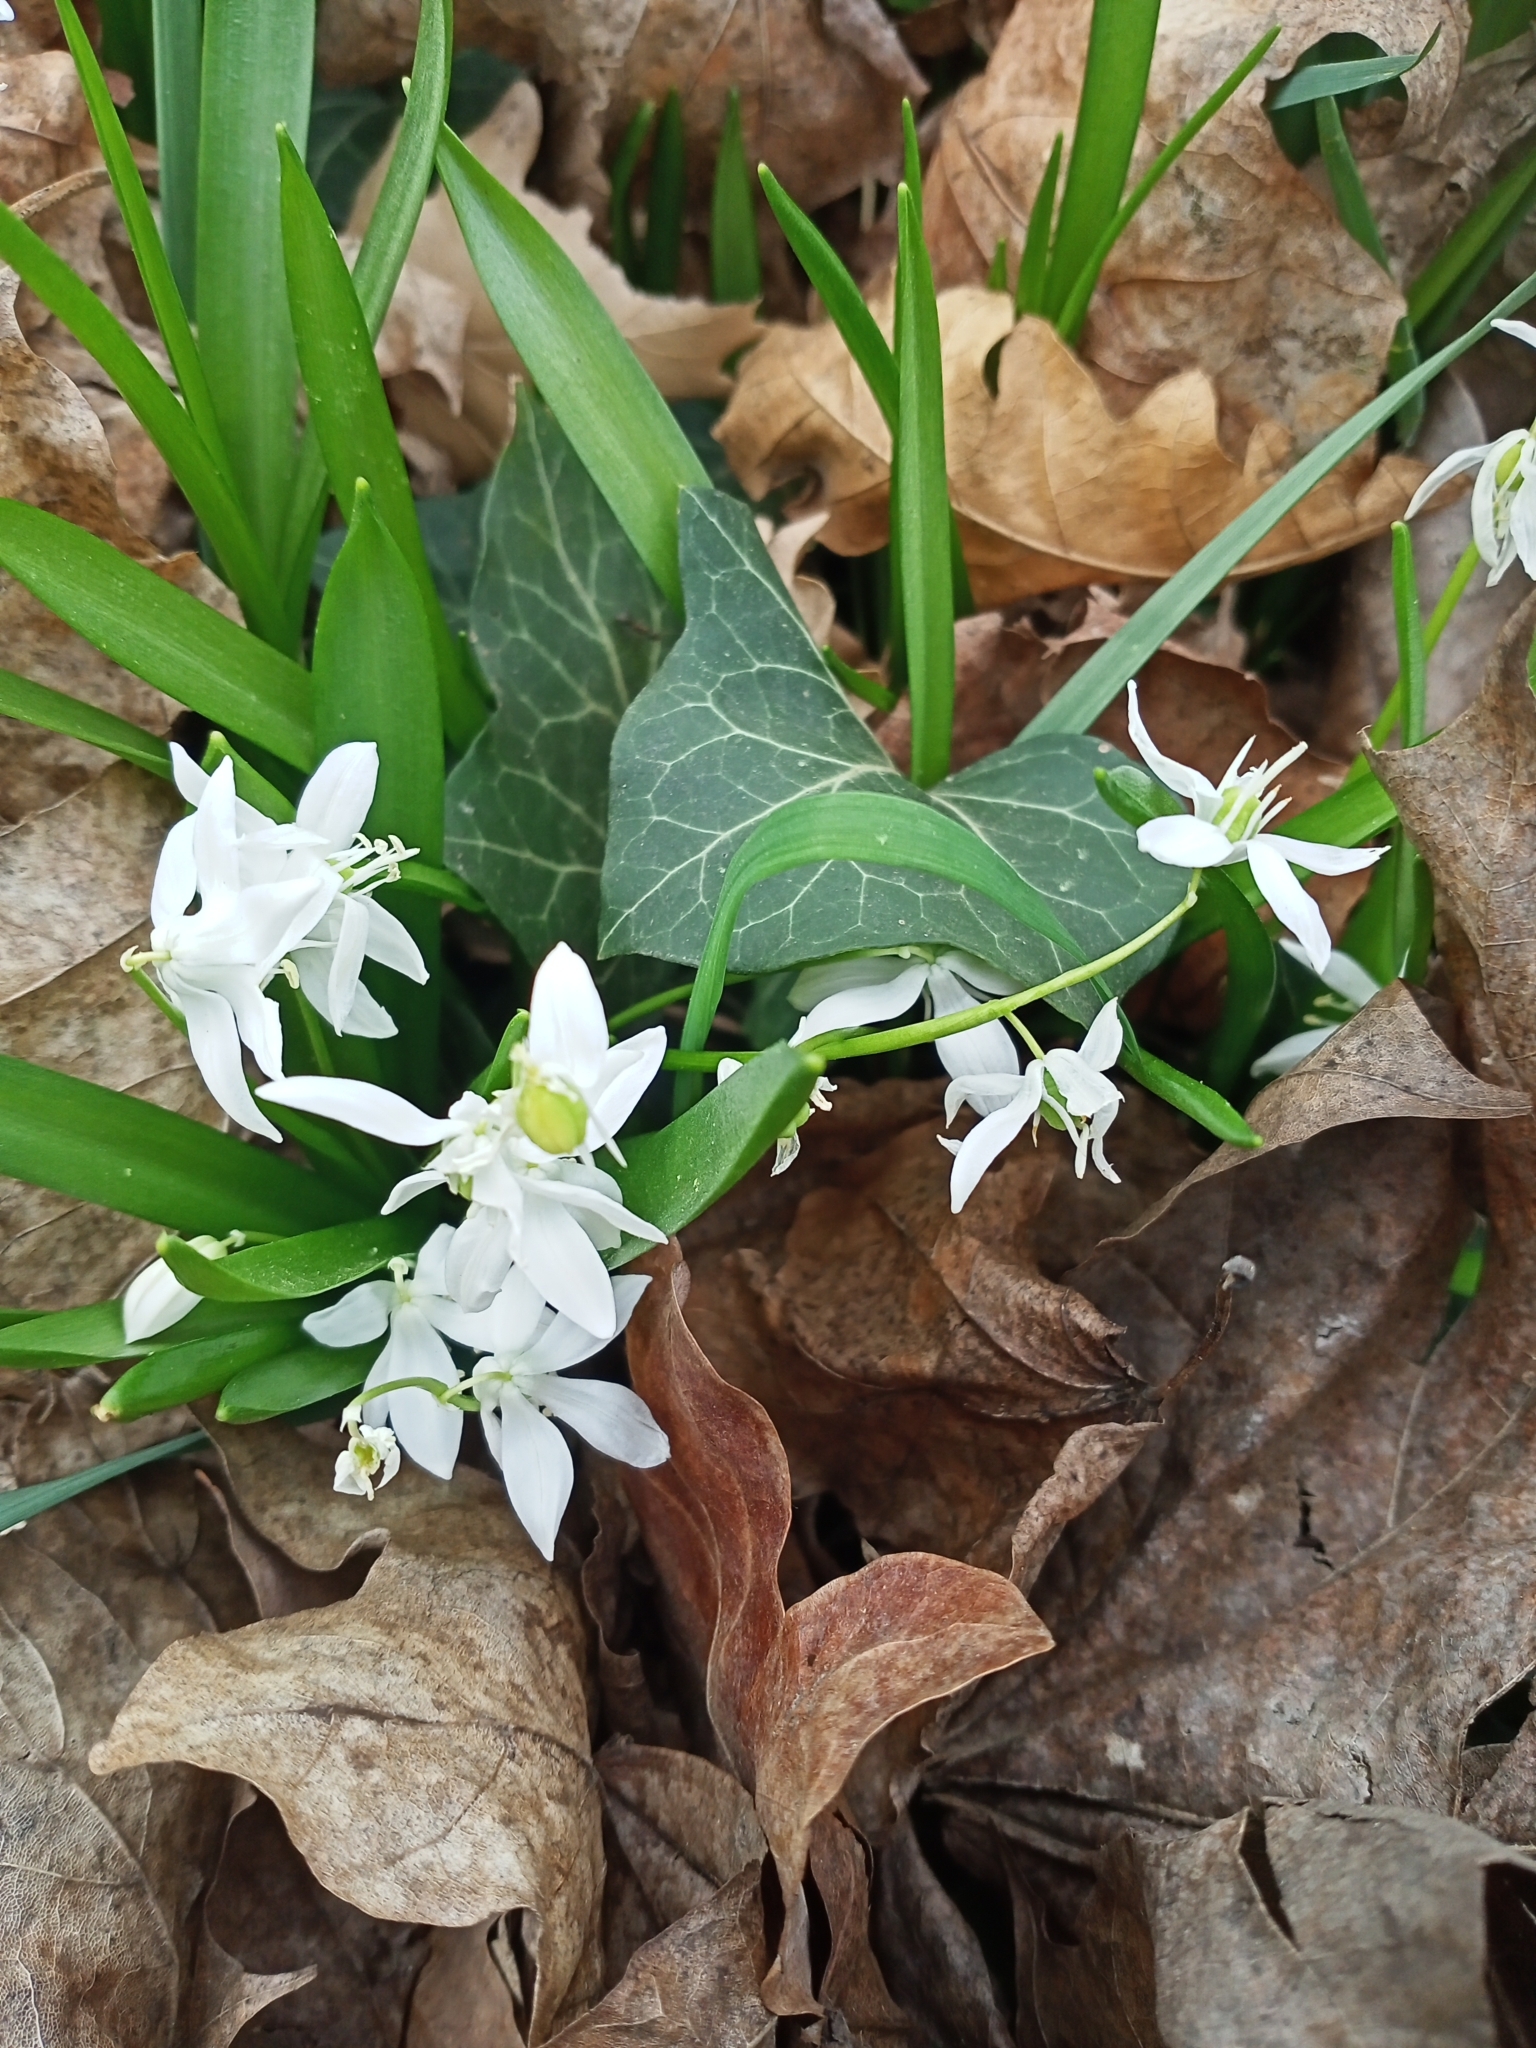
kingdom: Plantae
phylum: Tracheophyta
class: Liliopsida
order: Asparagales
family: Asparagaceae
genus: Scilla
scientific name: Scilla siberica
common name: Siberian squill
